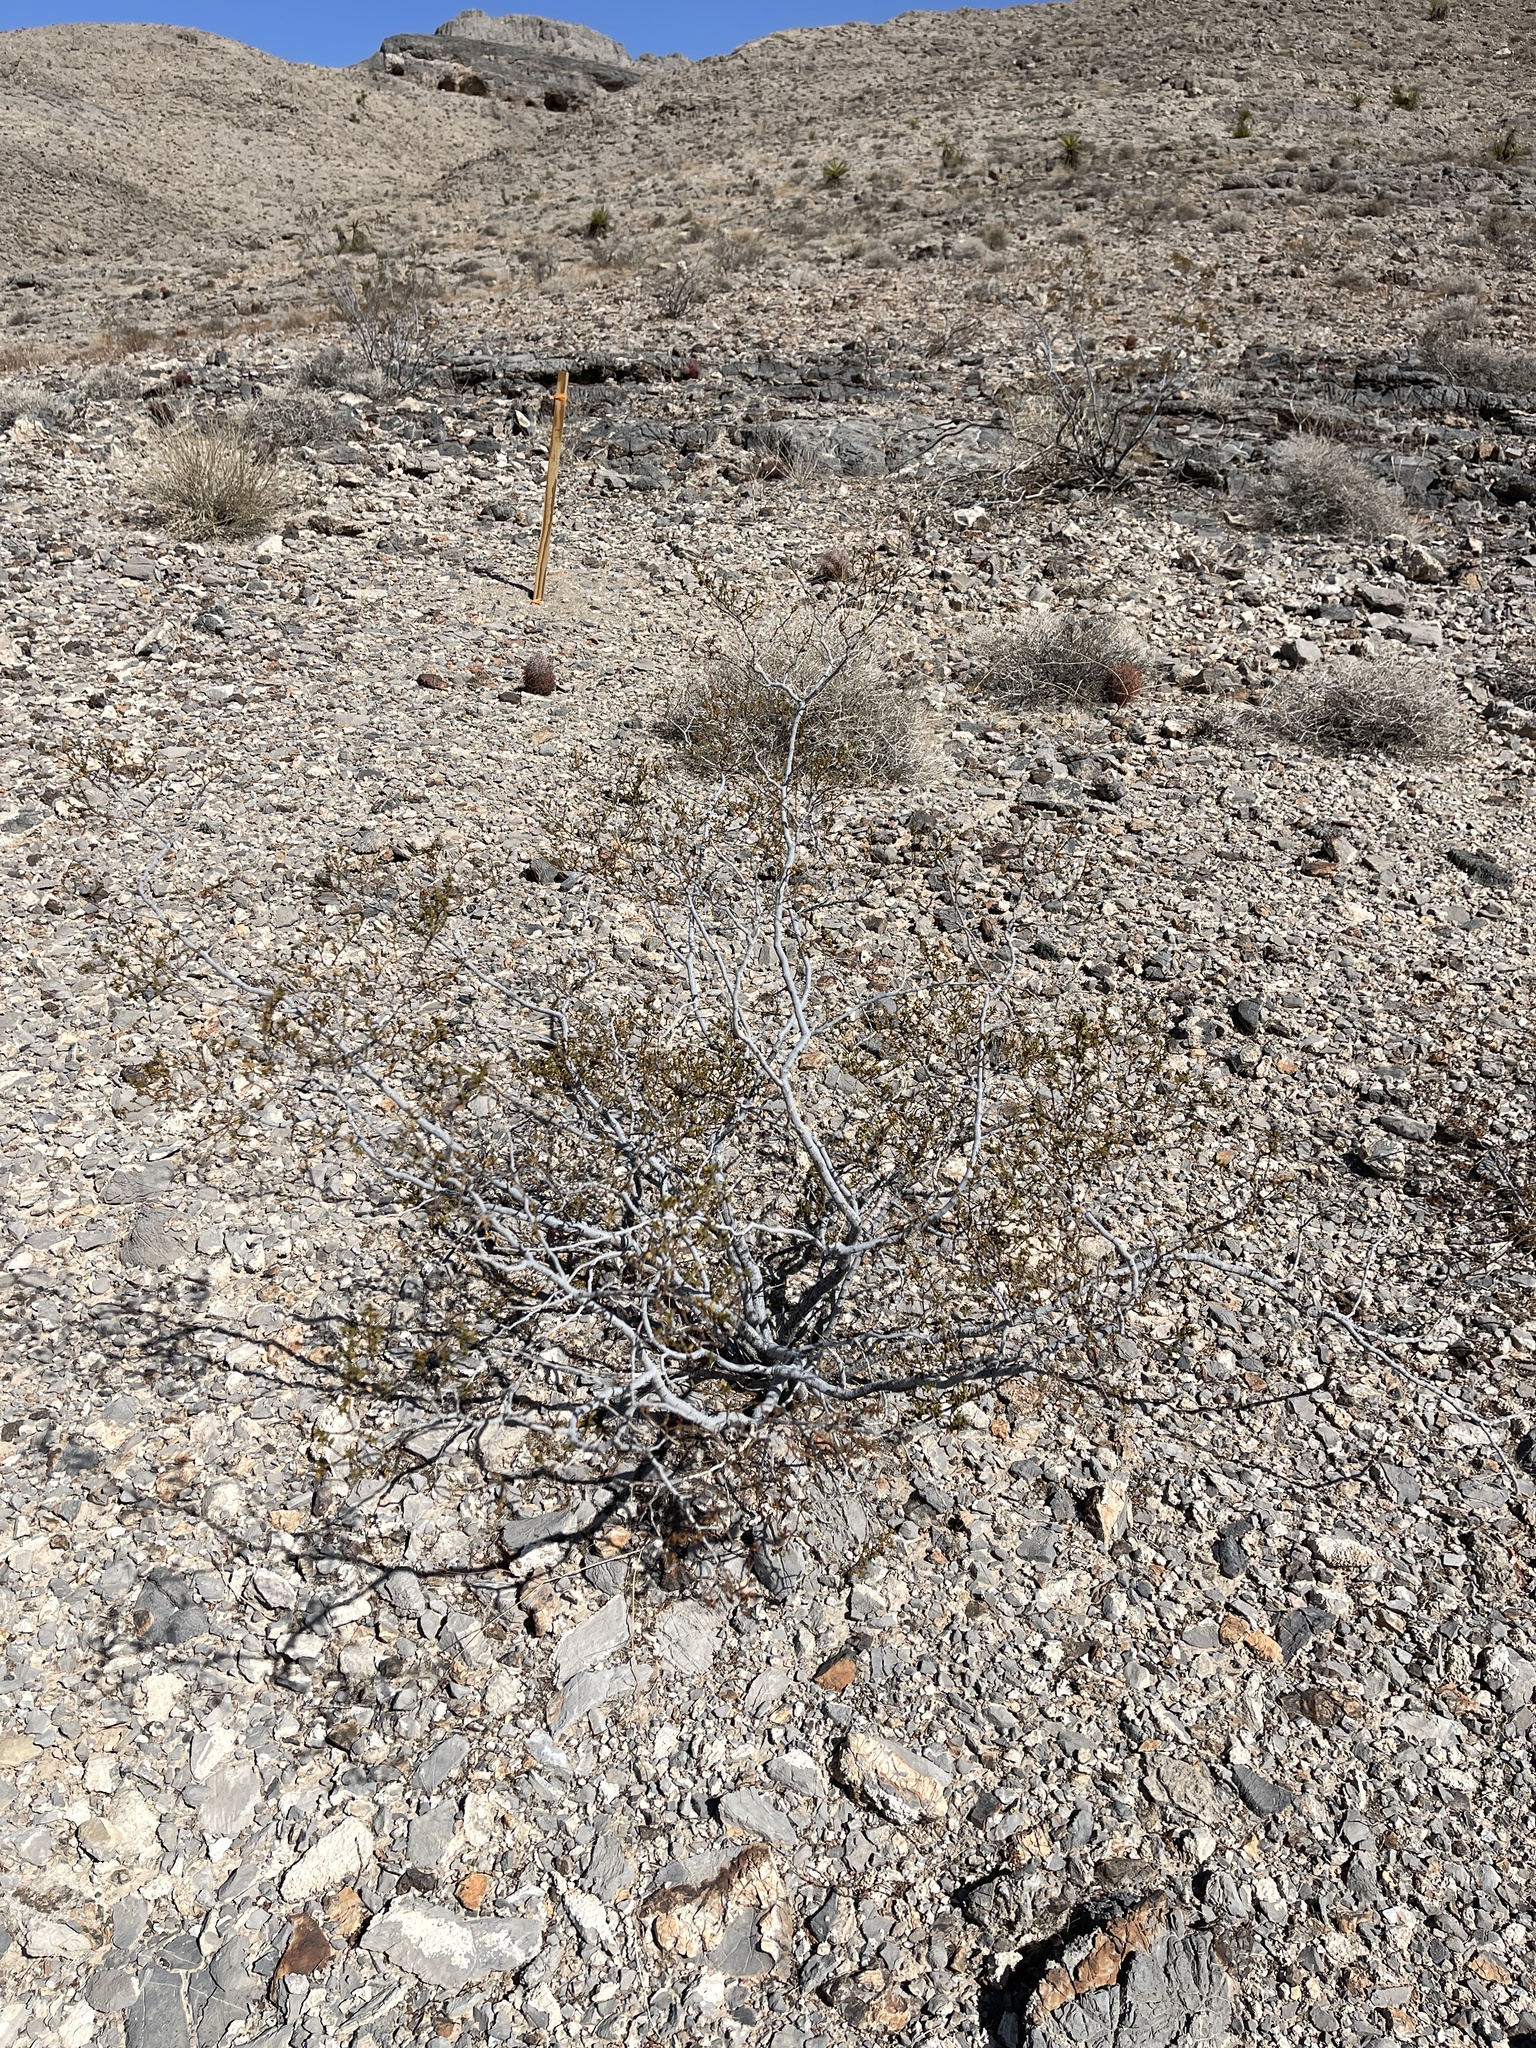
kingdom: Plantae
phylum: Tracheophyta
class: Magnoliopsida
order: Zygophyllales
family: Zygophyllaceae
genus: Larrea
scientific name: Larrea tridentata
